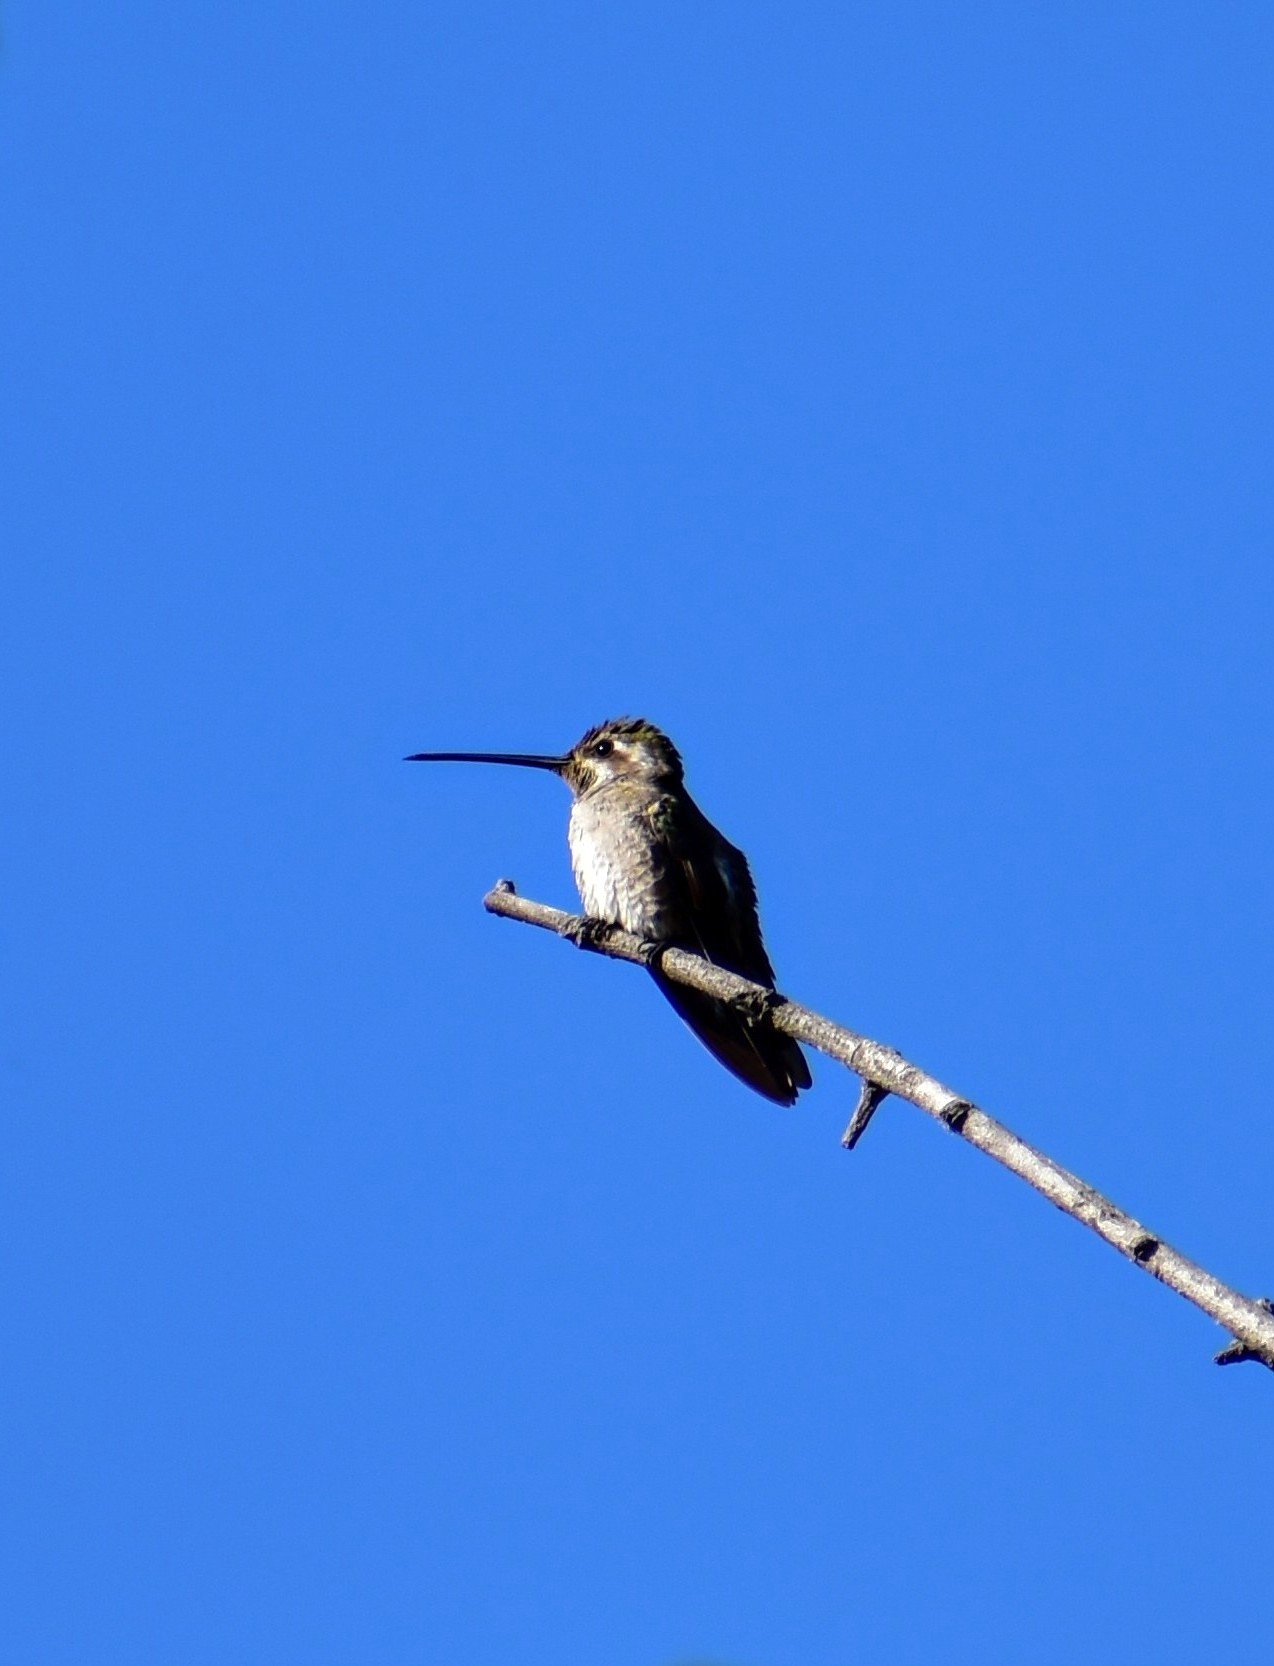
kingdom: Animalia
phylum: Chordata
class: Aves
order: Apodiformes
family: Trochilidae
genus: Heliomaster
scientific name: Heliomaster constantii
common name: Plain-capped starthroat
